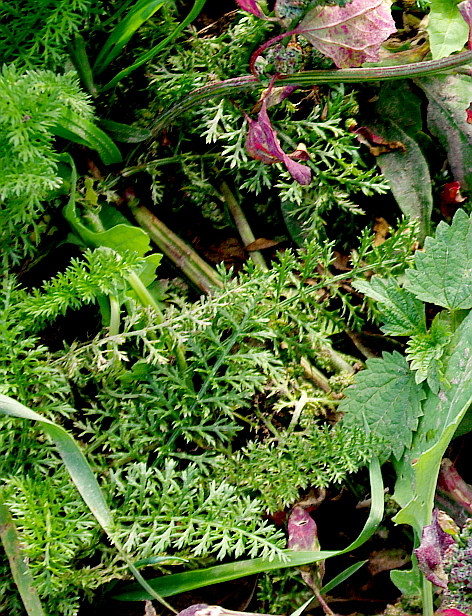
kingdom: Plantae
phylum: Tracheophyta
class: Magnoliopsida
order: Asterales
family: Asteraceae
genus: Achillea
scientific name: Achillea millefolium
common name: Yarrow
